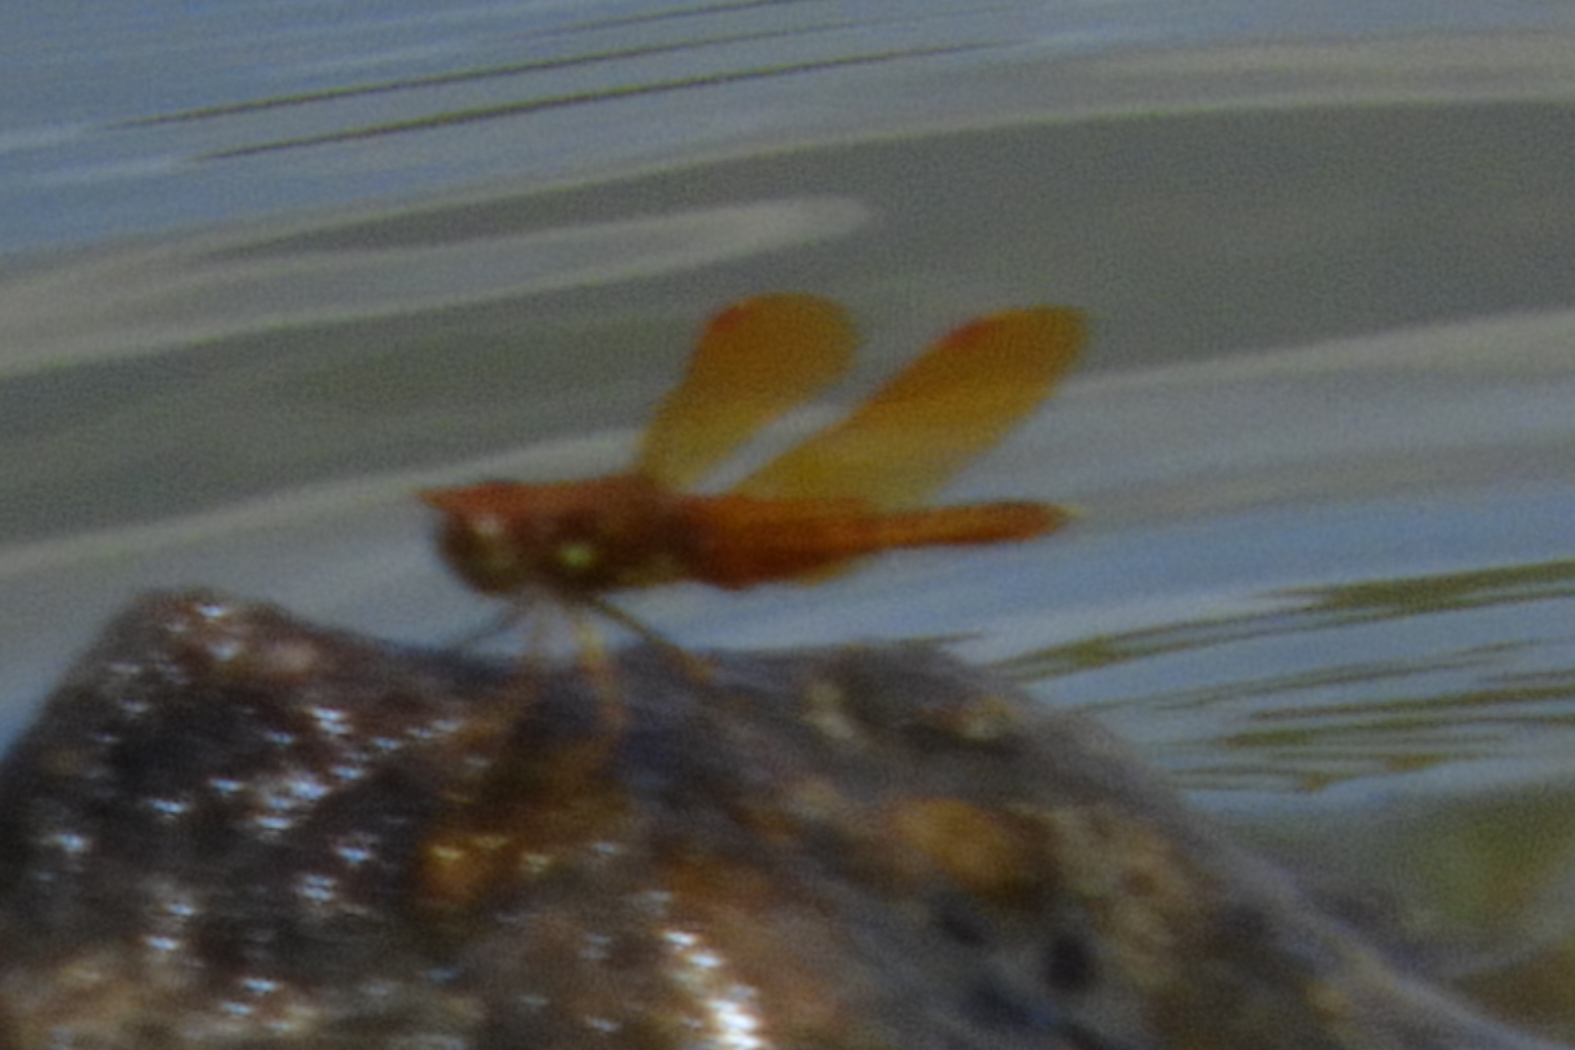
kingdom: Animalia
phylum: Arthropoda
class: Insecta
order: Odonata
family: Libellulidae
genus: Perithemis
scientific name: Perithemis tenera
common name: Eastern amberwing
